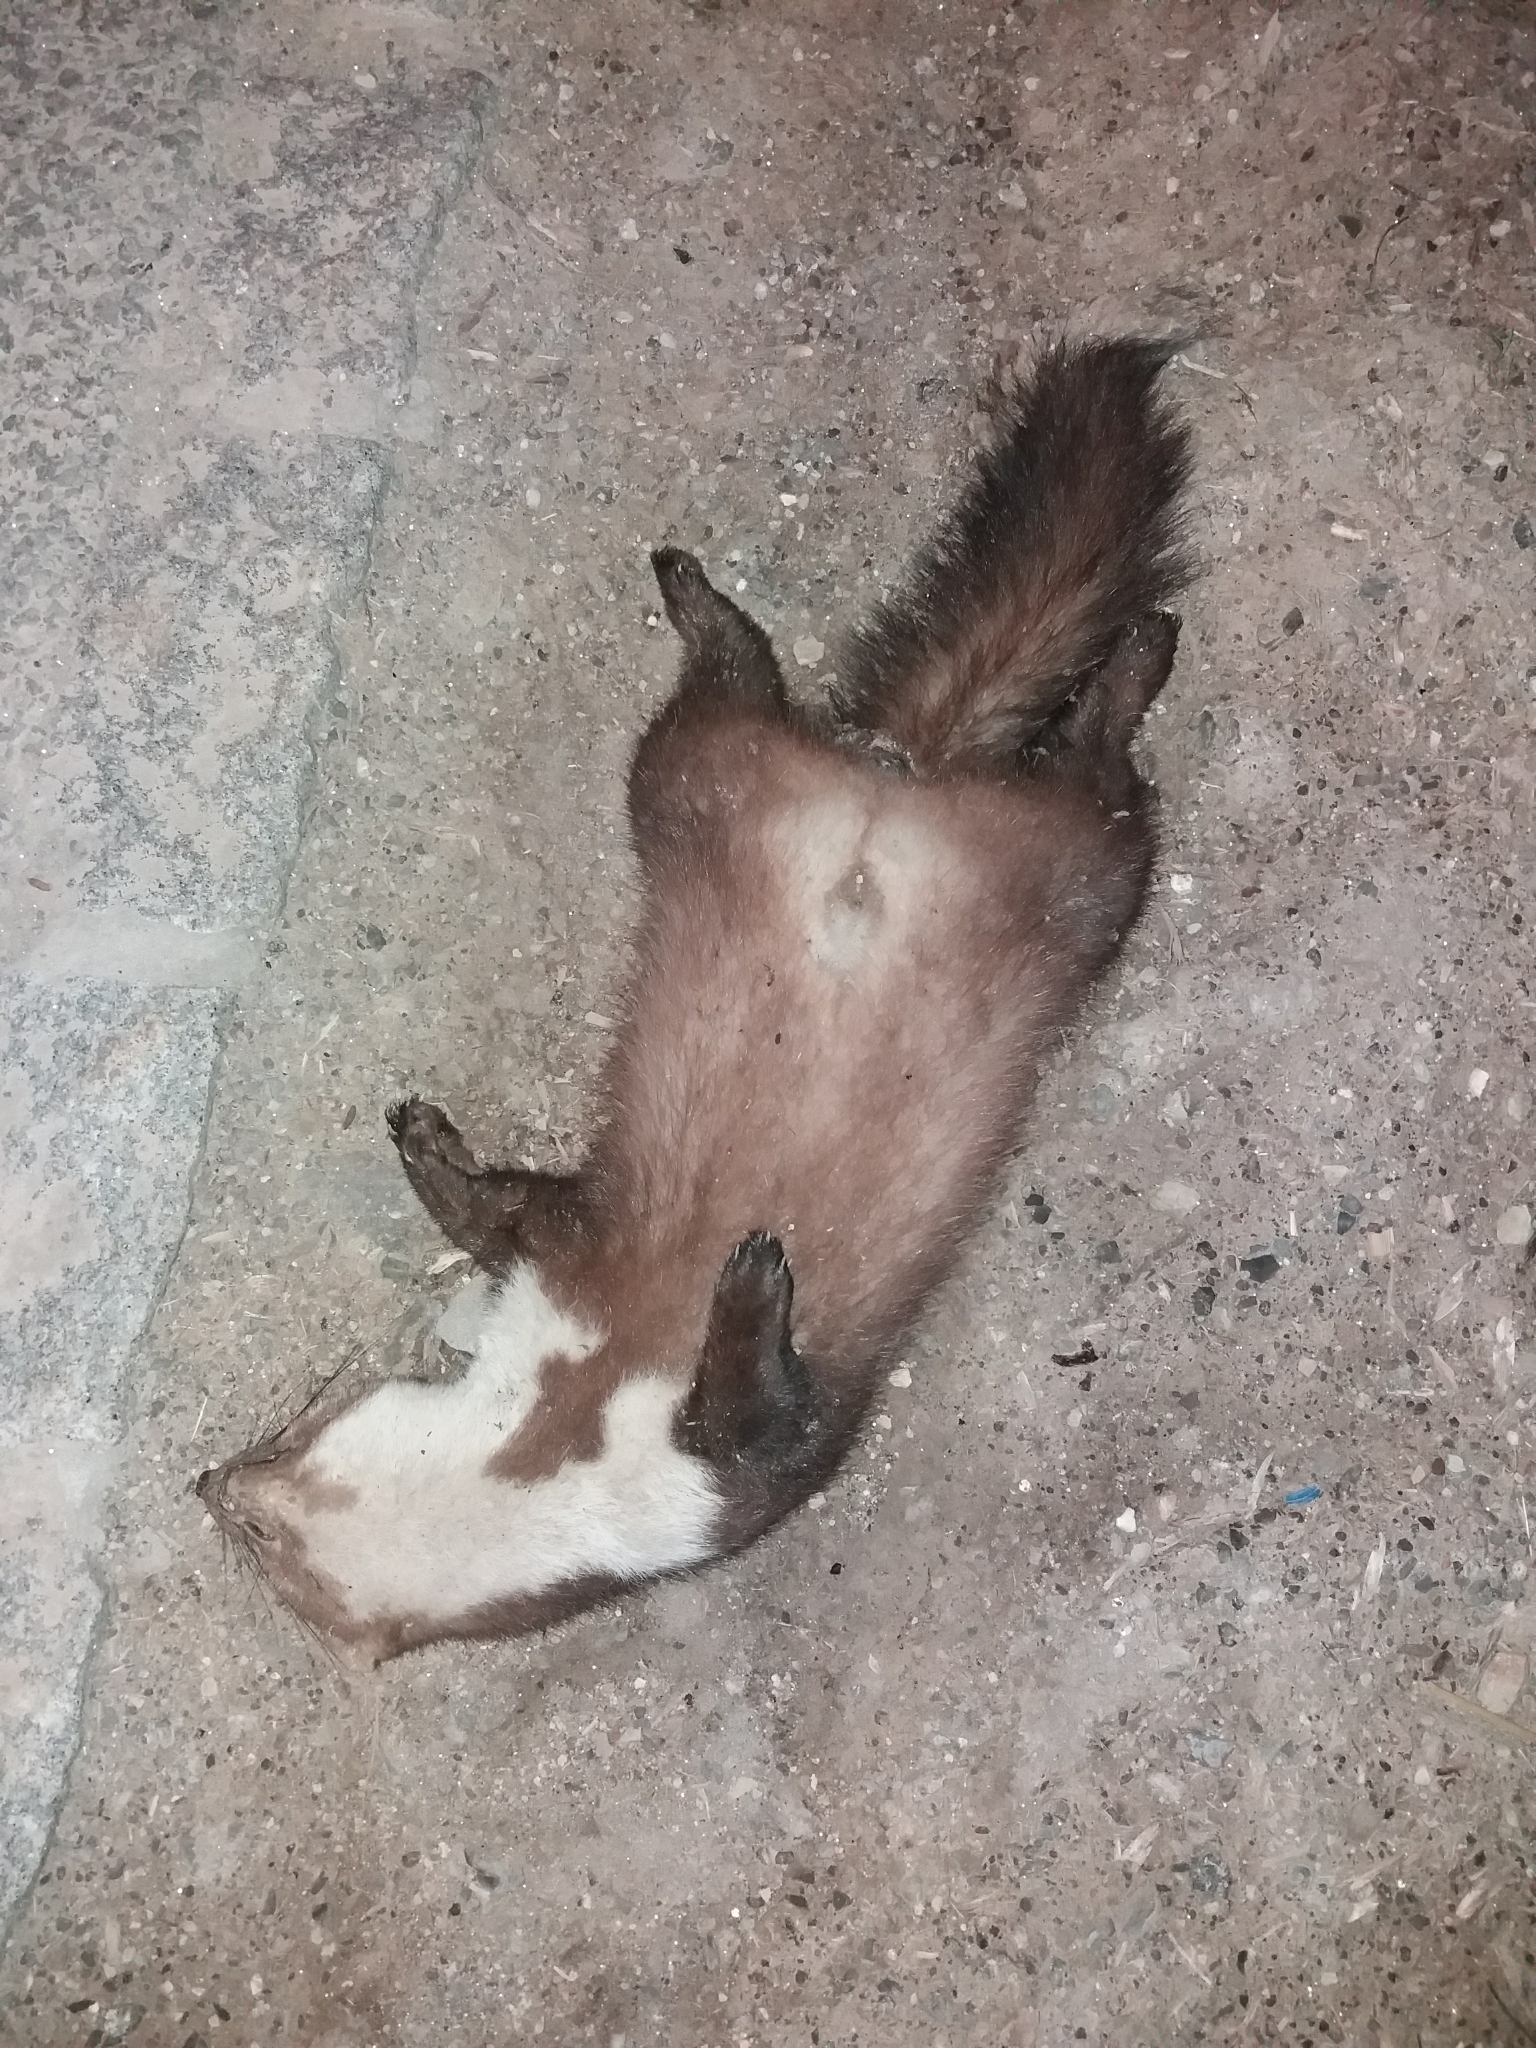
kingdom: Animalia
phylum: Chordata
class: Mammalia
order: Carnivora
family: Mustelidae
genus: Martes
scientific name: Martes foina
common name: Beech marten
